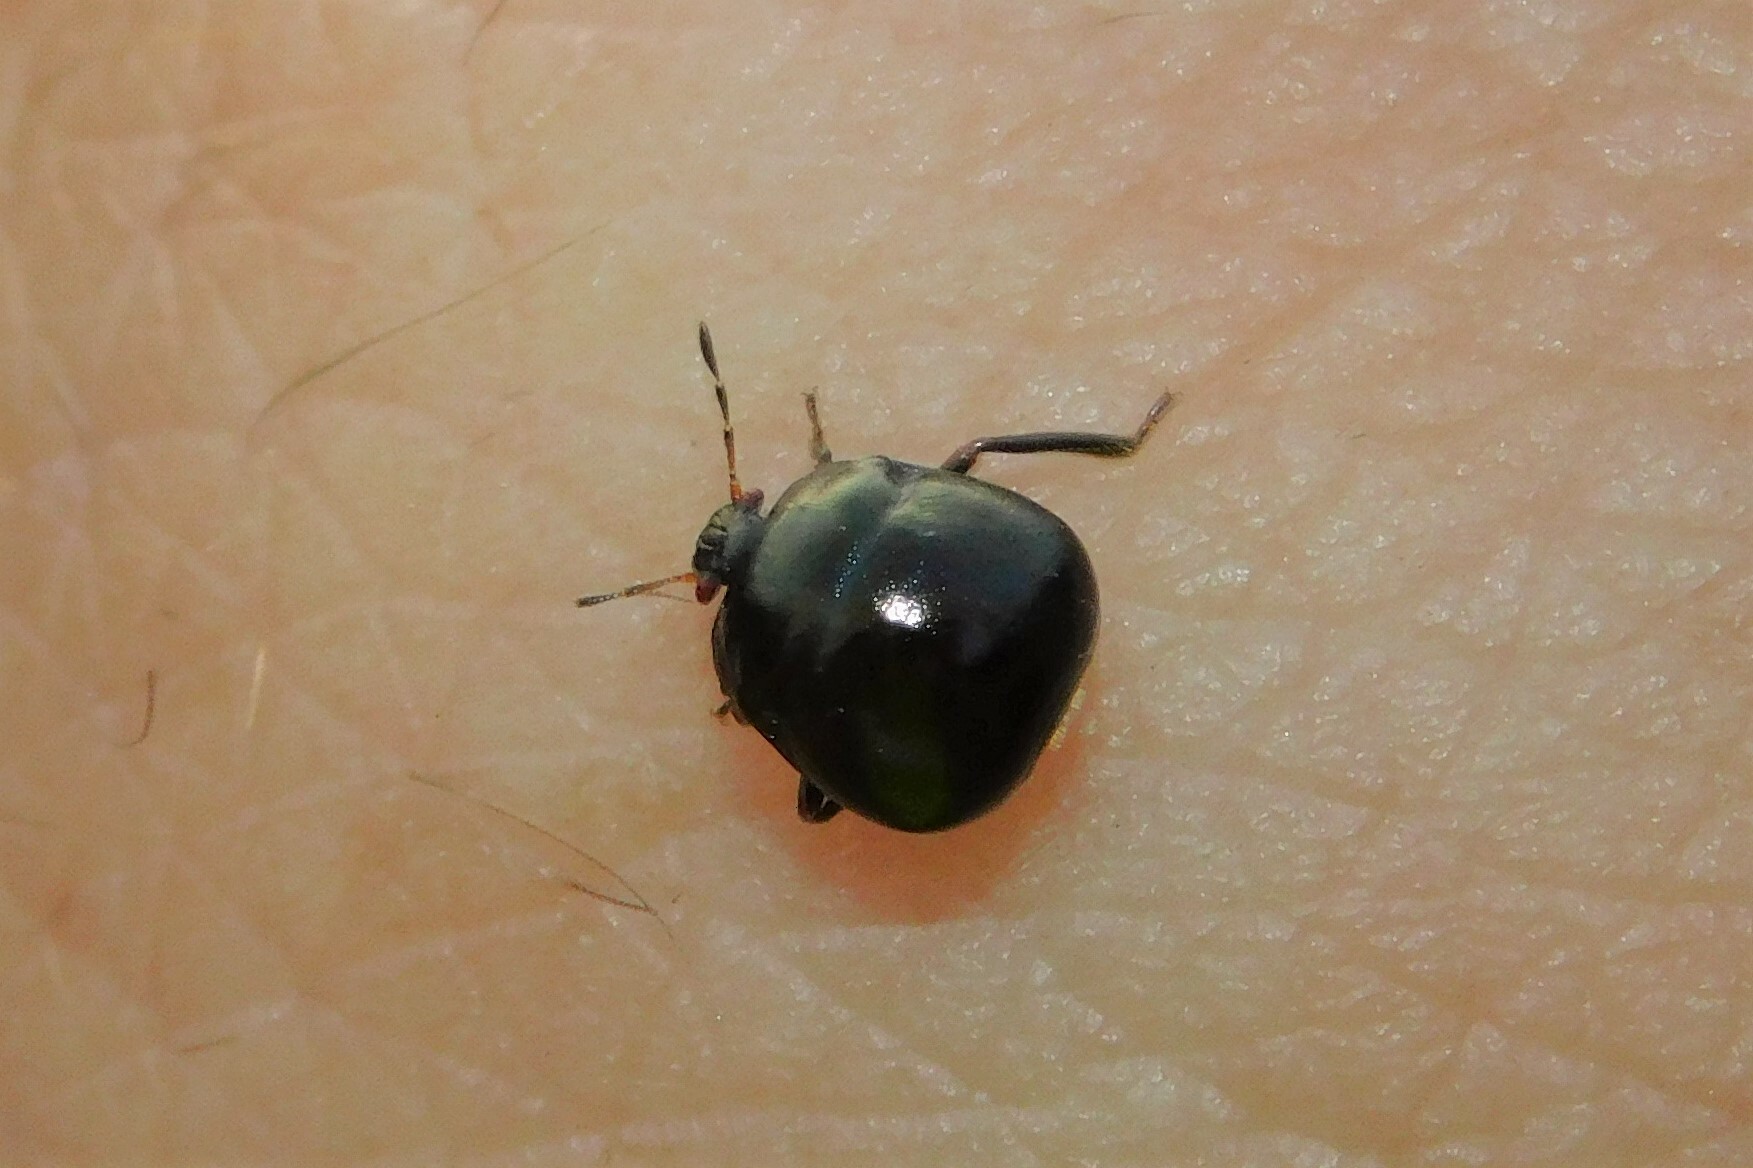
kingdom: Animalia
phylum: Arthropoda
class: Insecta
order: Hemiptera
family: Plataspidae
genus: Coptosoma
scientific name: Coptosoma scutellatum
